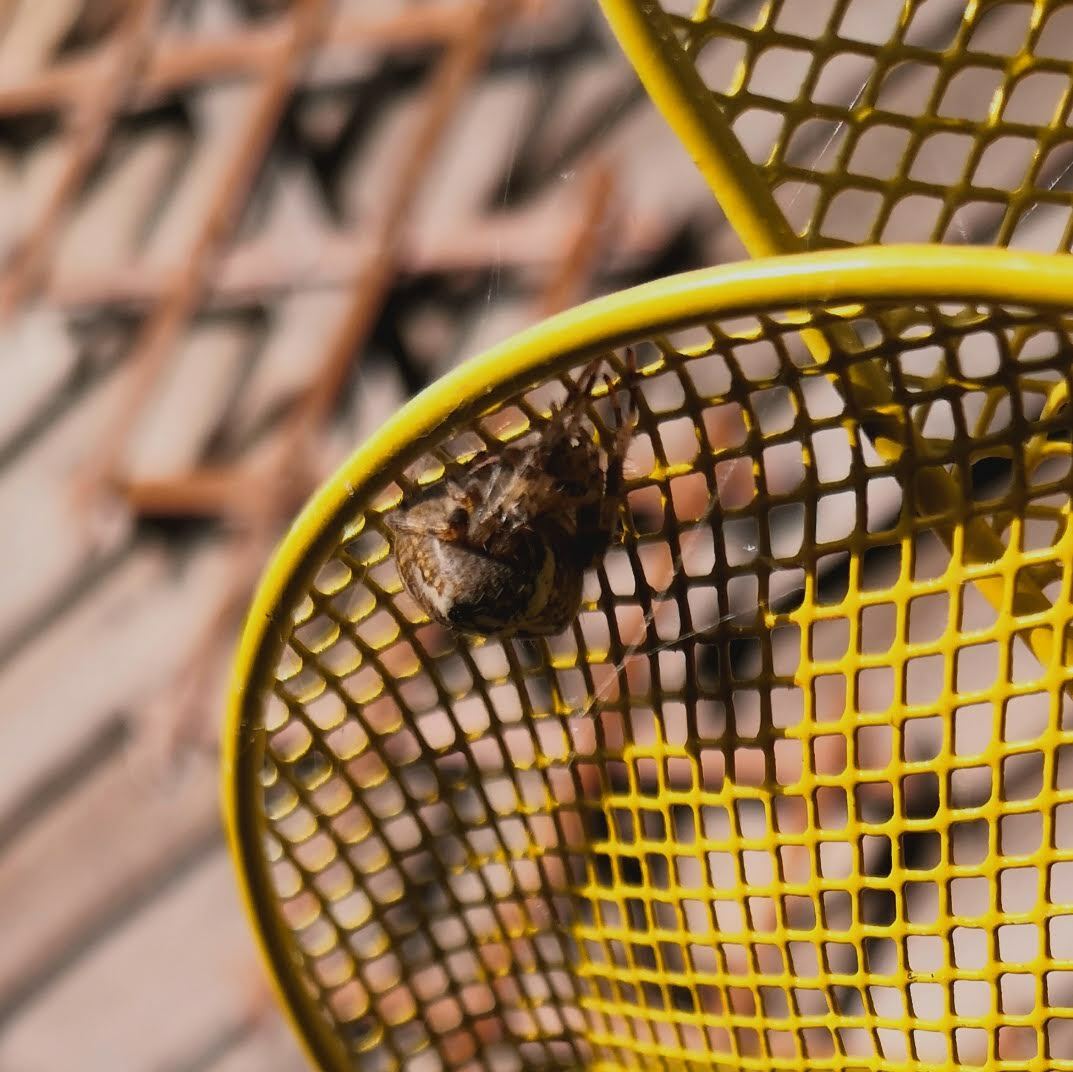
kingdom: Animalia
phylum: Arthropoda
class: Arachnida
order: Araneae
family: Araneidae
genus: Araneus
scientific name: Araneus diadematus
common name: Cross orbweaver
